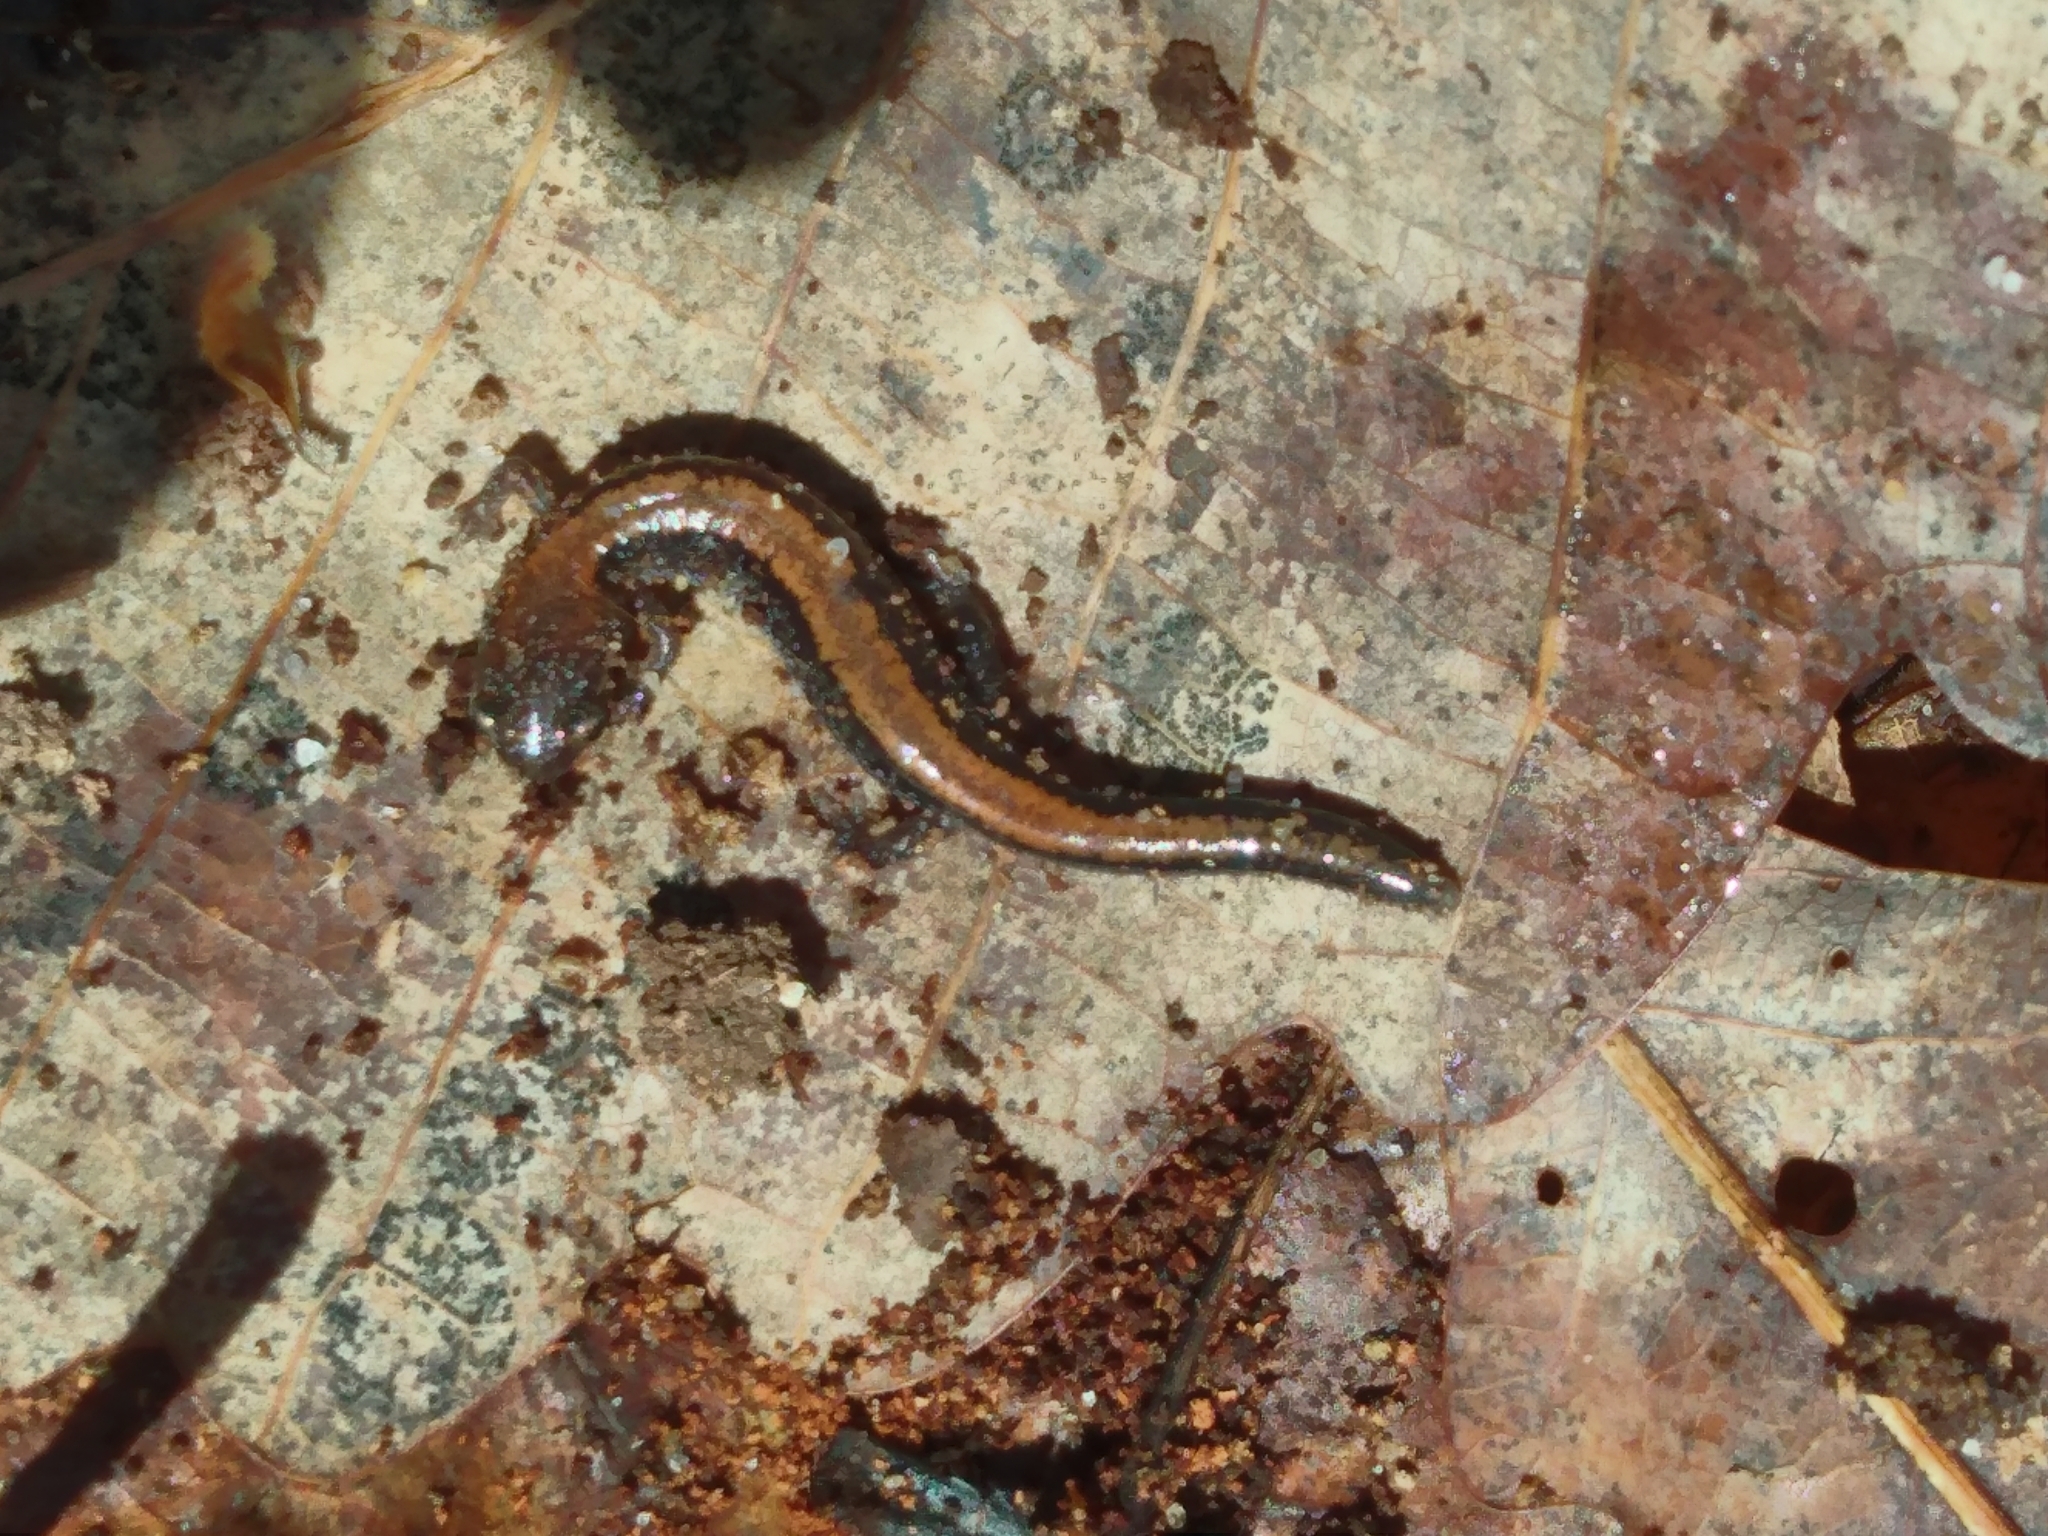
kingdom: Animalia
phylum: Chordata
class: Amphibia
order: Caudata
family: Plethodontidae
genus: Plethodon
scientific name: Plethodon cinereus
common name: Redback salamander
